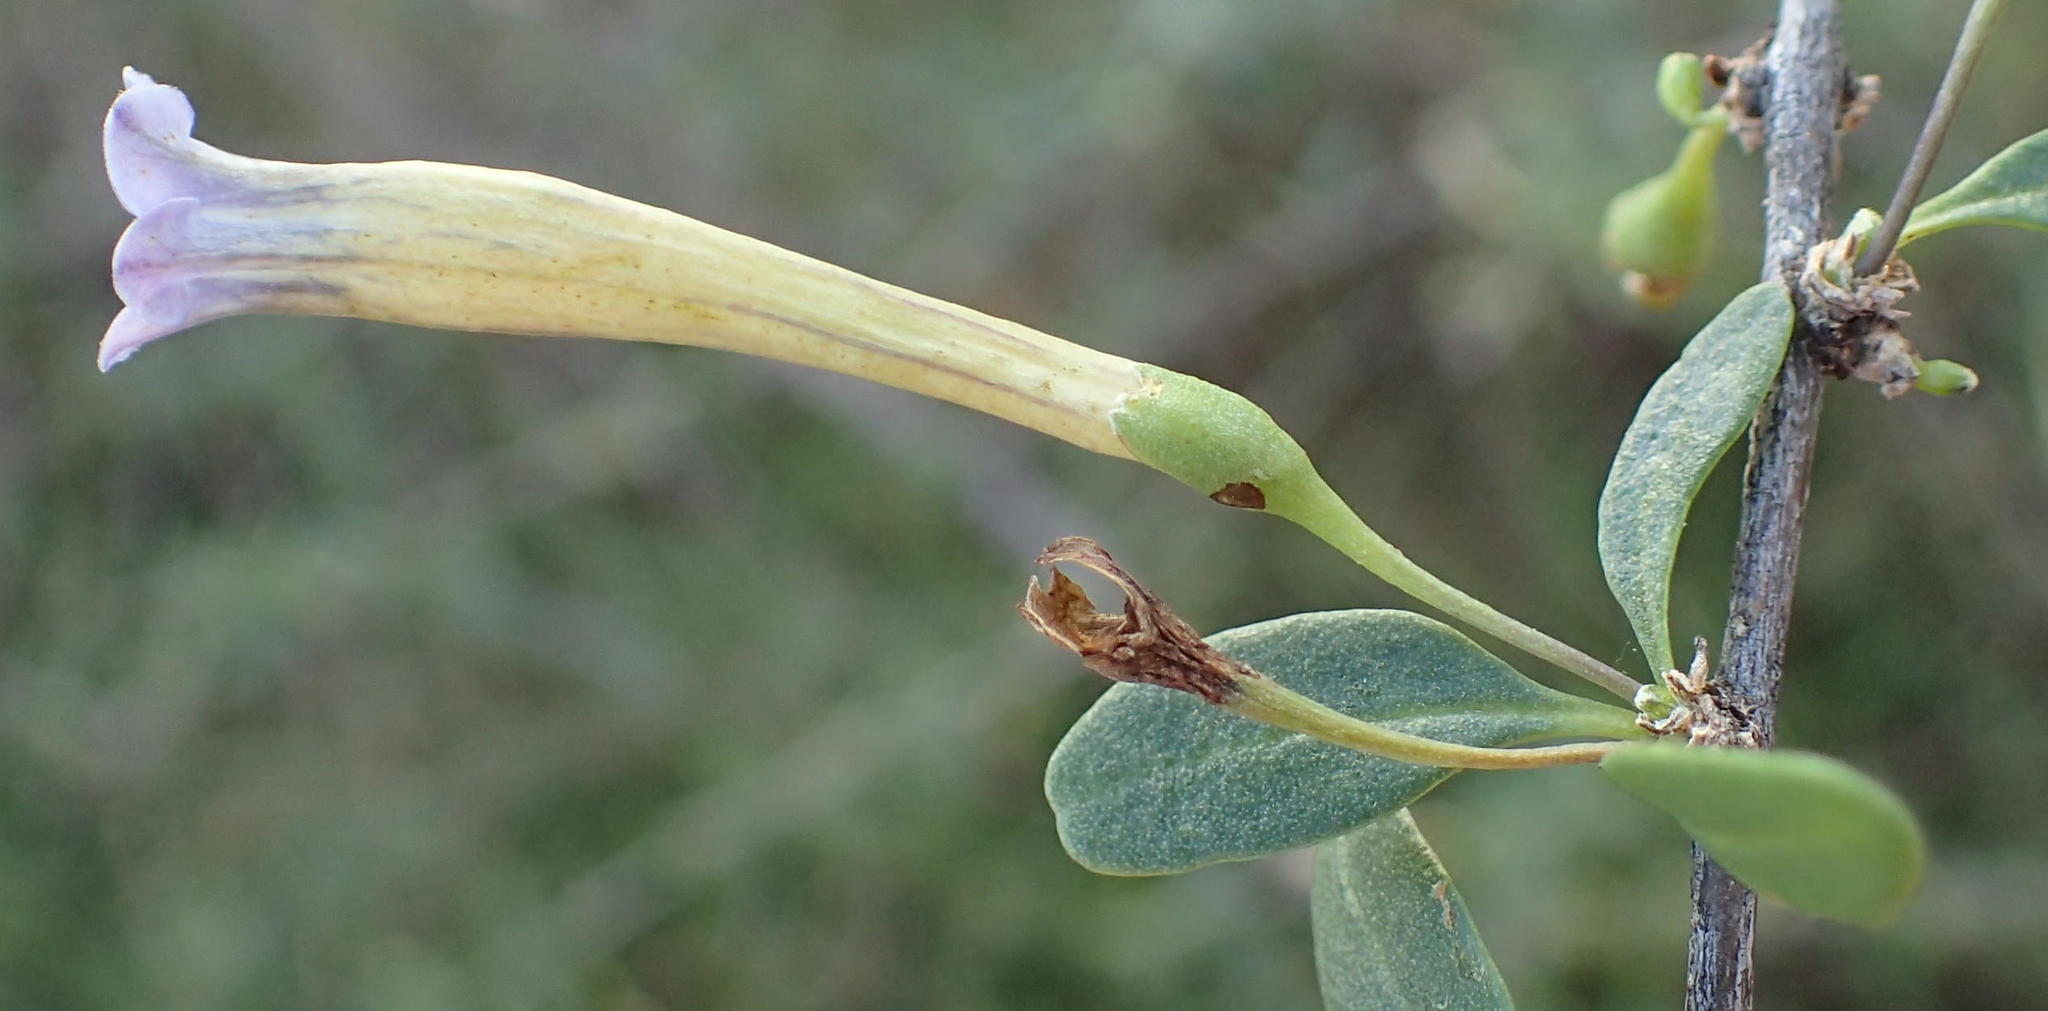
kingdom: Plantae
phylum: Tracheophyta
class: Magnoliopsida
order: Solanales
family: Solanaceae
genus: Lycium
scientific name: Lycium oxycarpum
